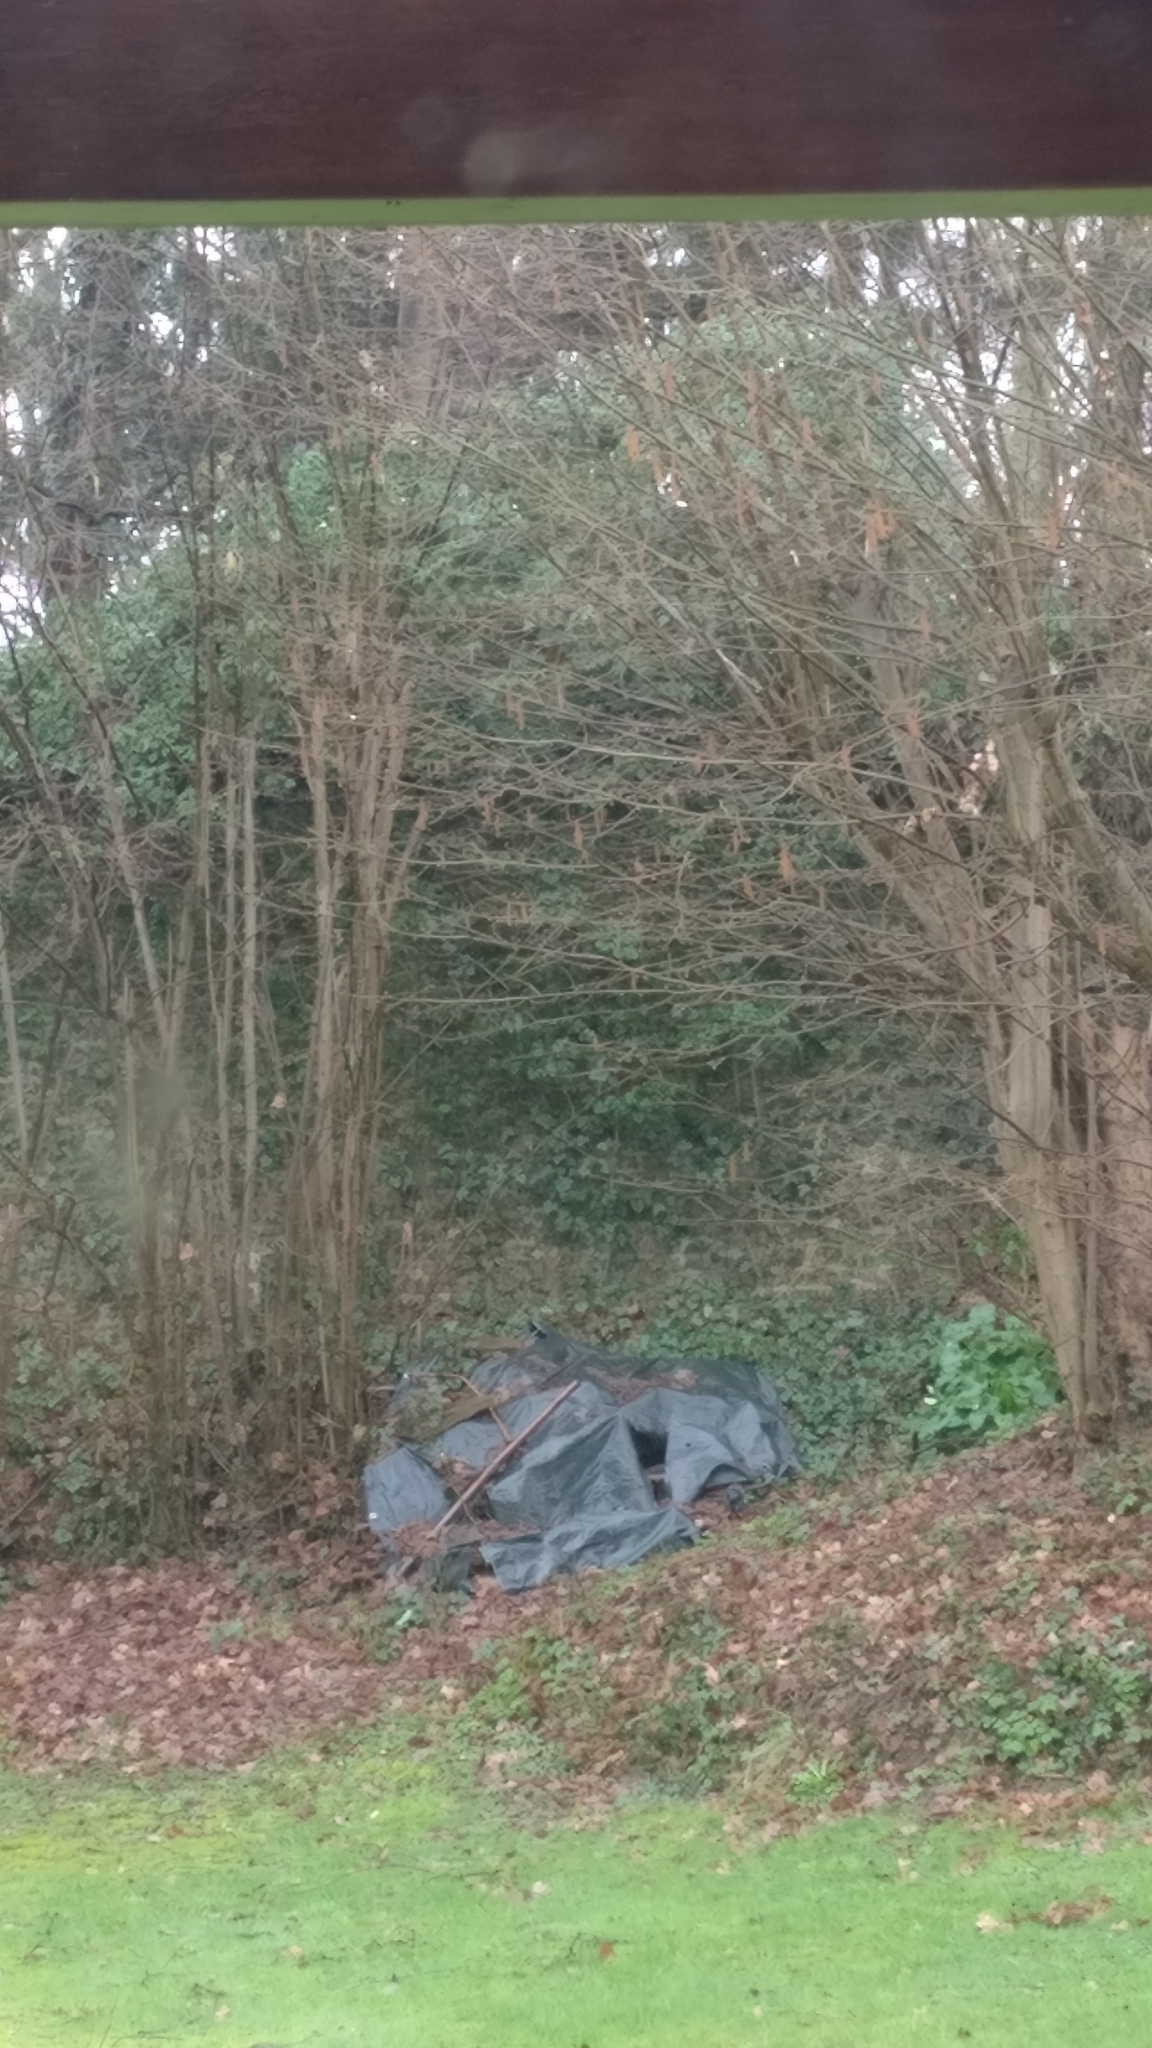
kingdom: Animalia
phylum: Chordata
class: Mammalia
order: Rodentia
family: Sciuridae
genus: Sciurus
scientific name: Sciurus vulgaris
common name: Eurasian red squirrel
